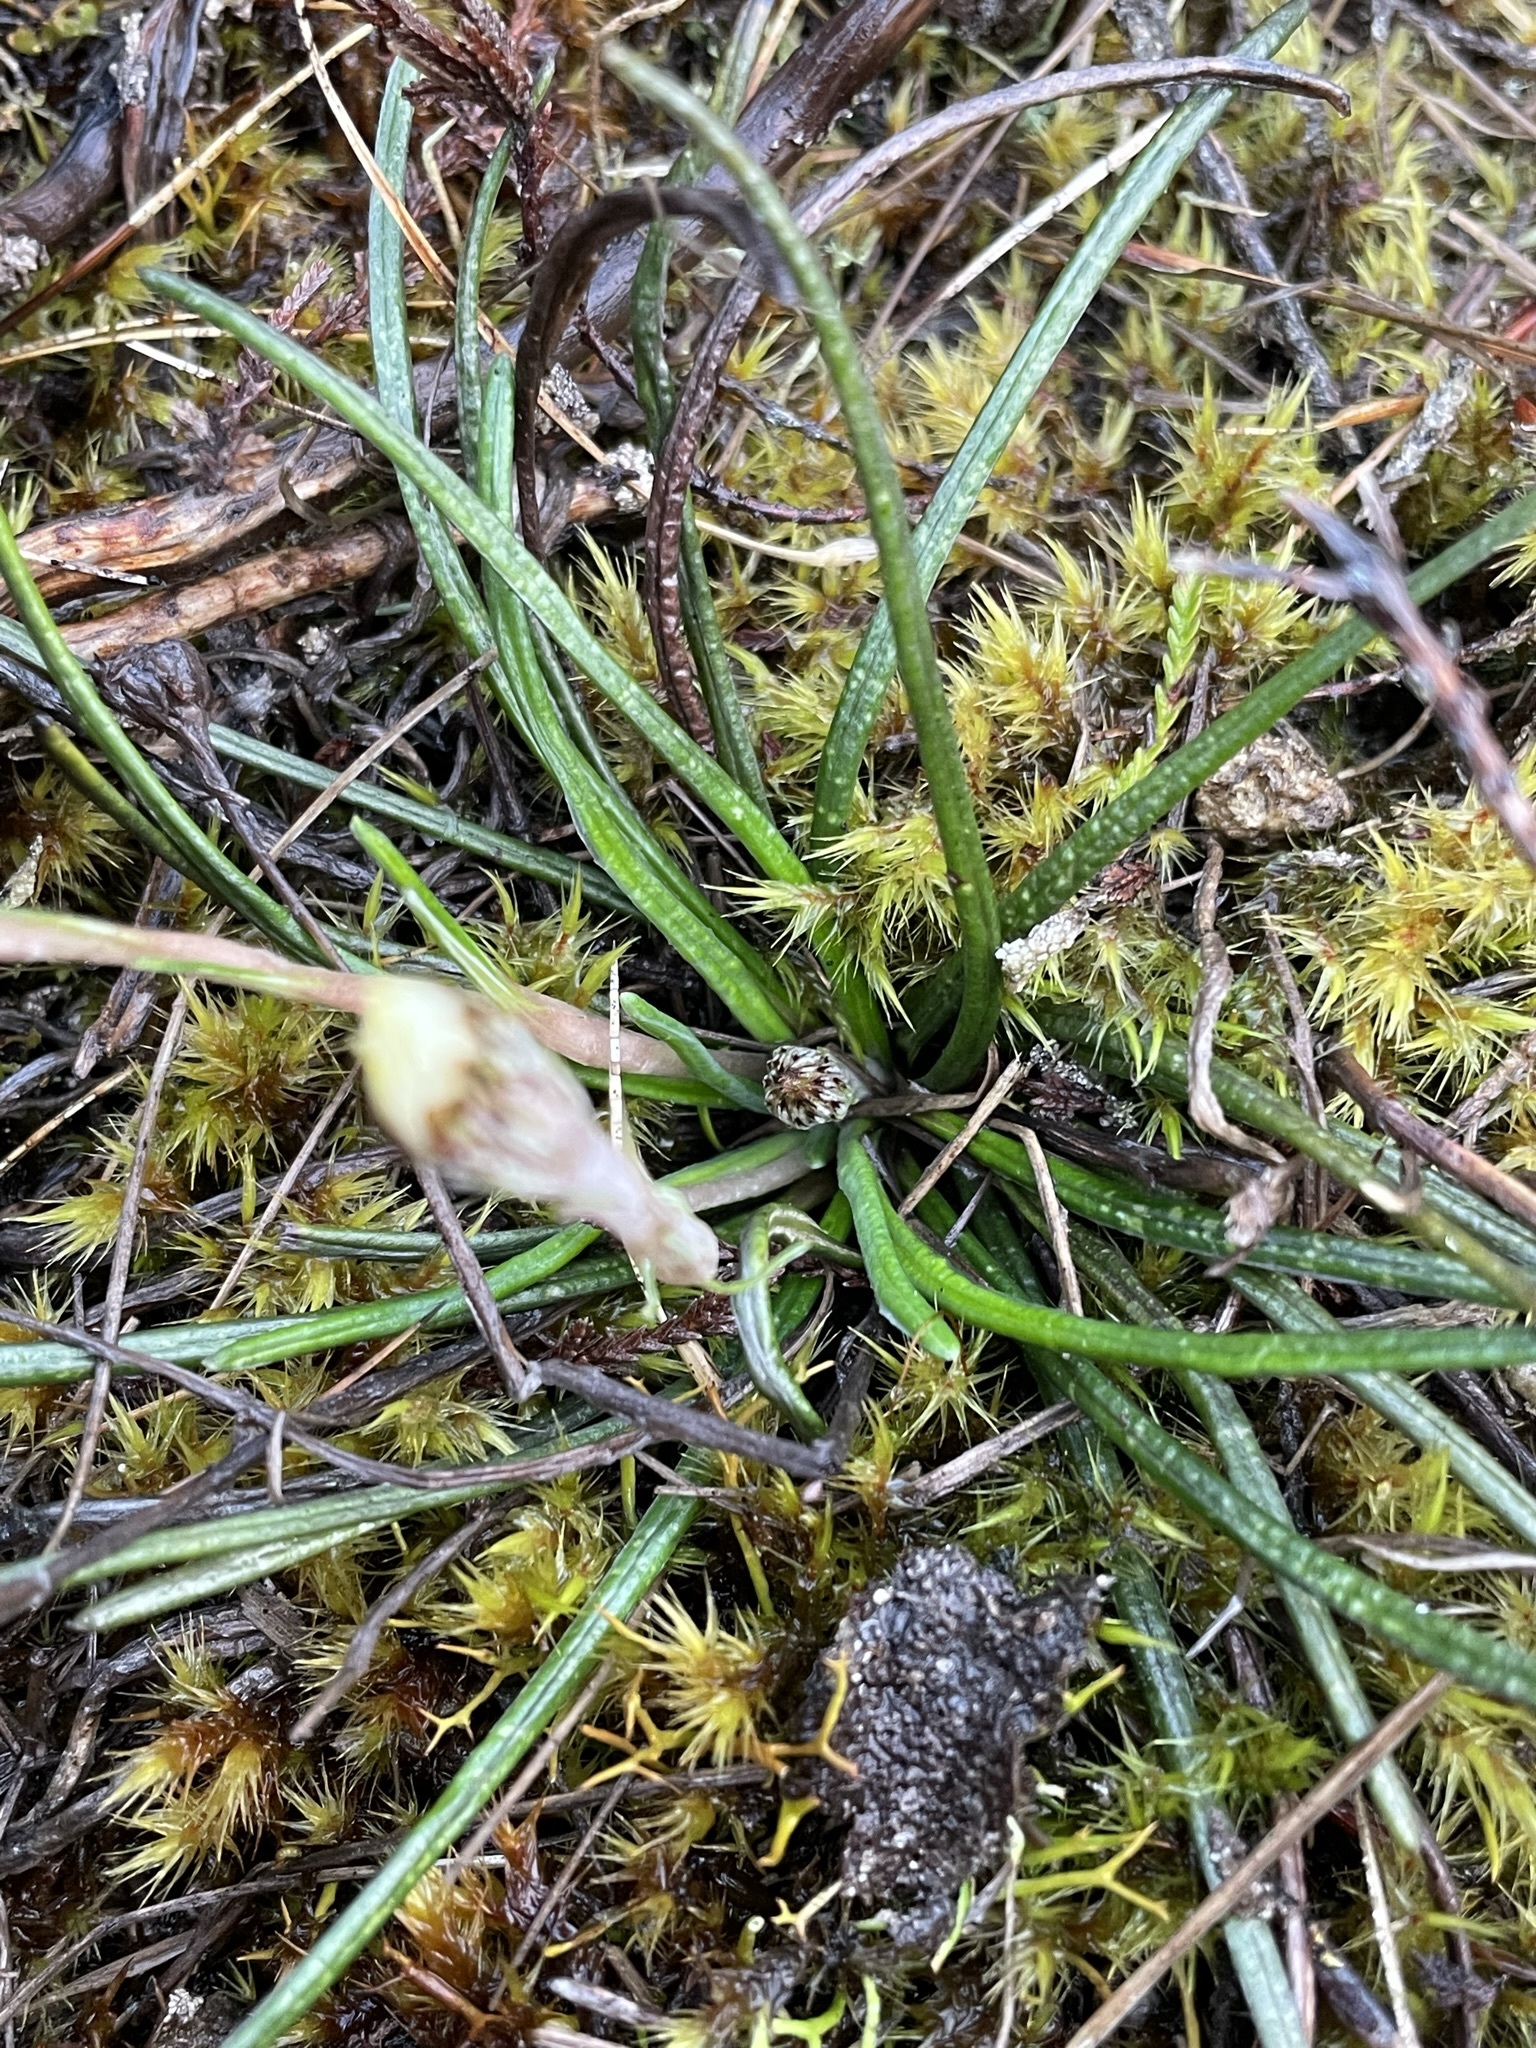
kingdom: Plantae
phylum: Tracheophyta
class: Magnoliopsida
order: Asterales
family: Asteraceae
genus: Celmisia
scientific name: Celmisia gracilenta
